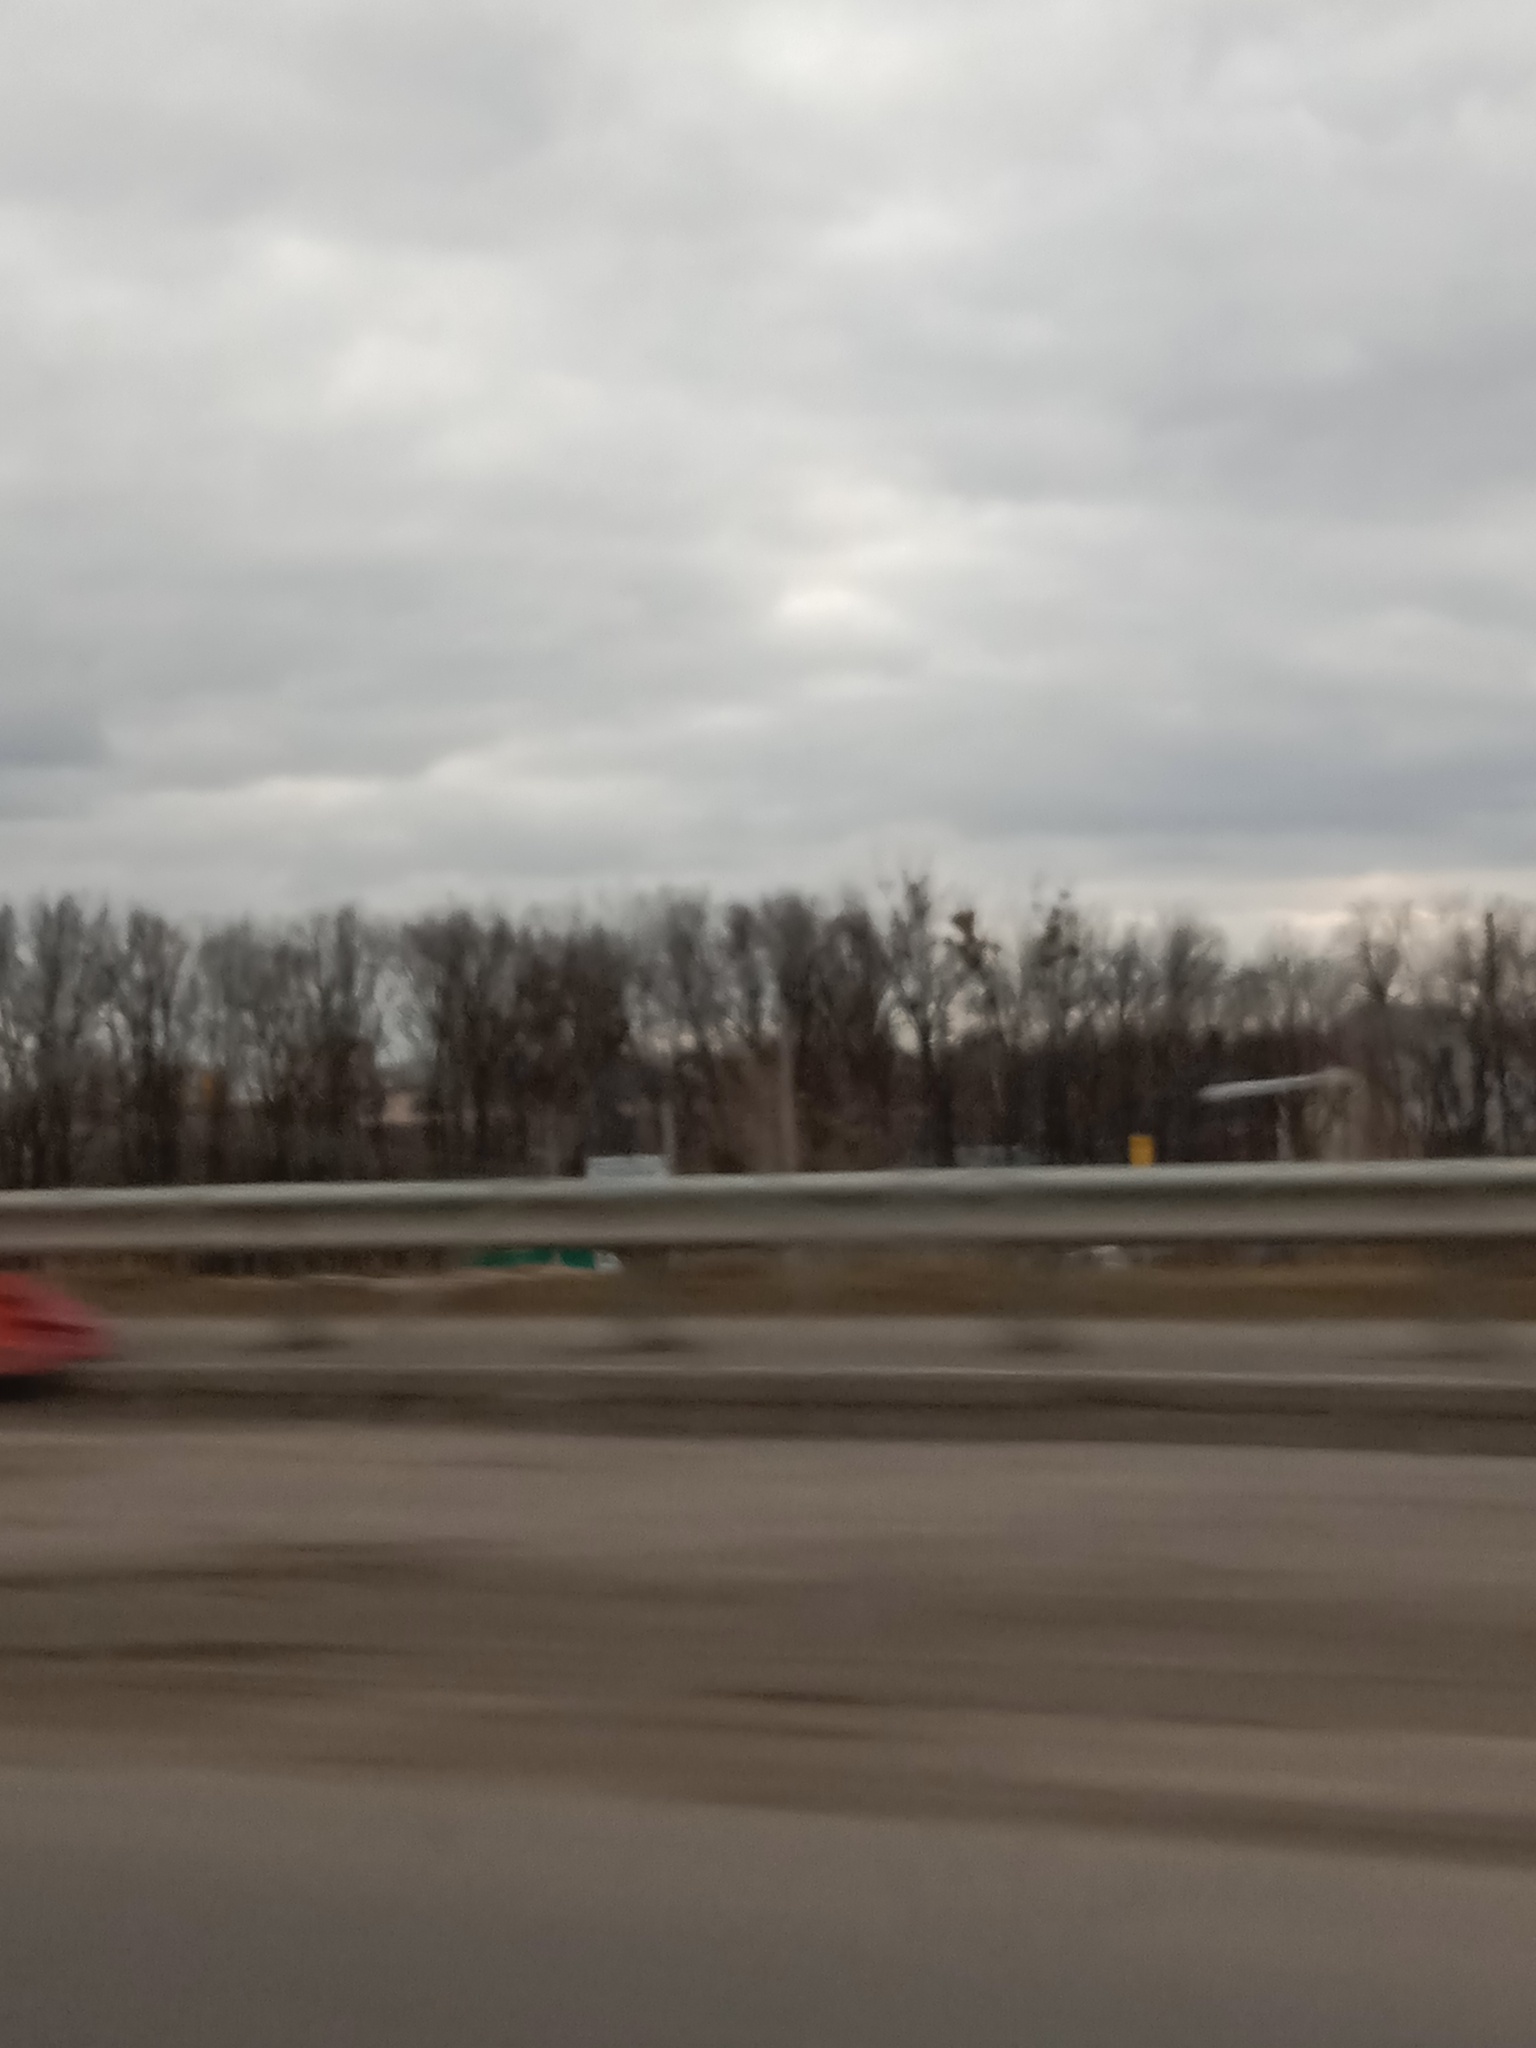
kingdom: Plantae
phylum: Tracheophyta
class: Magnoliopsida
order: Santalales
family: Viscaceae
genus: Viscum
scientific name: Viscum album
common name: Mistletoe
